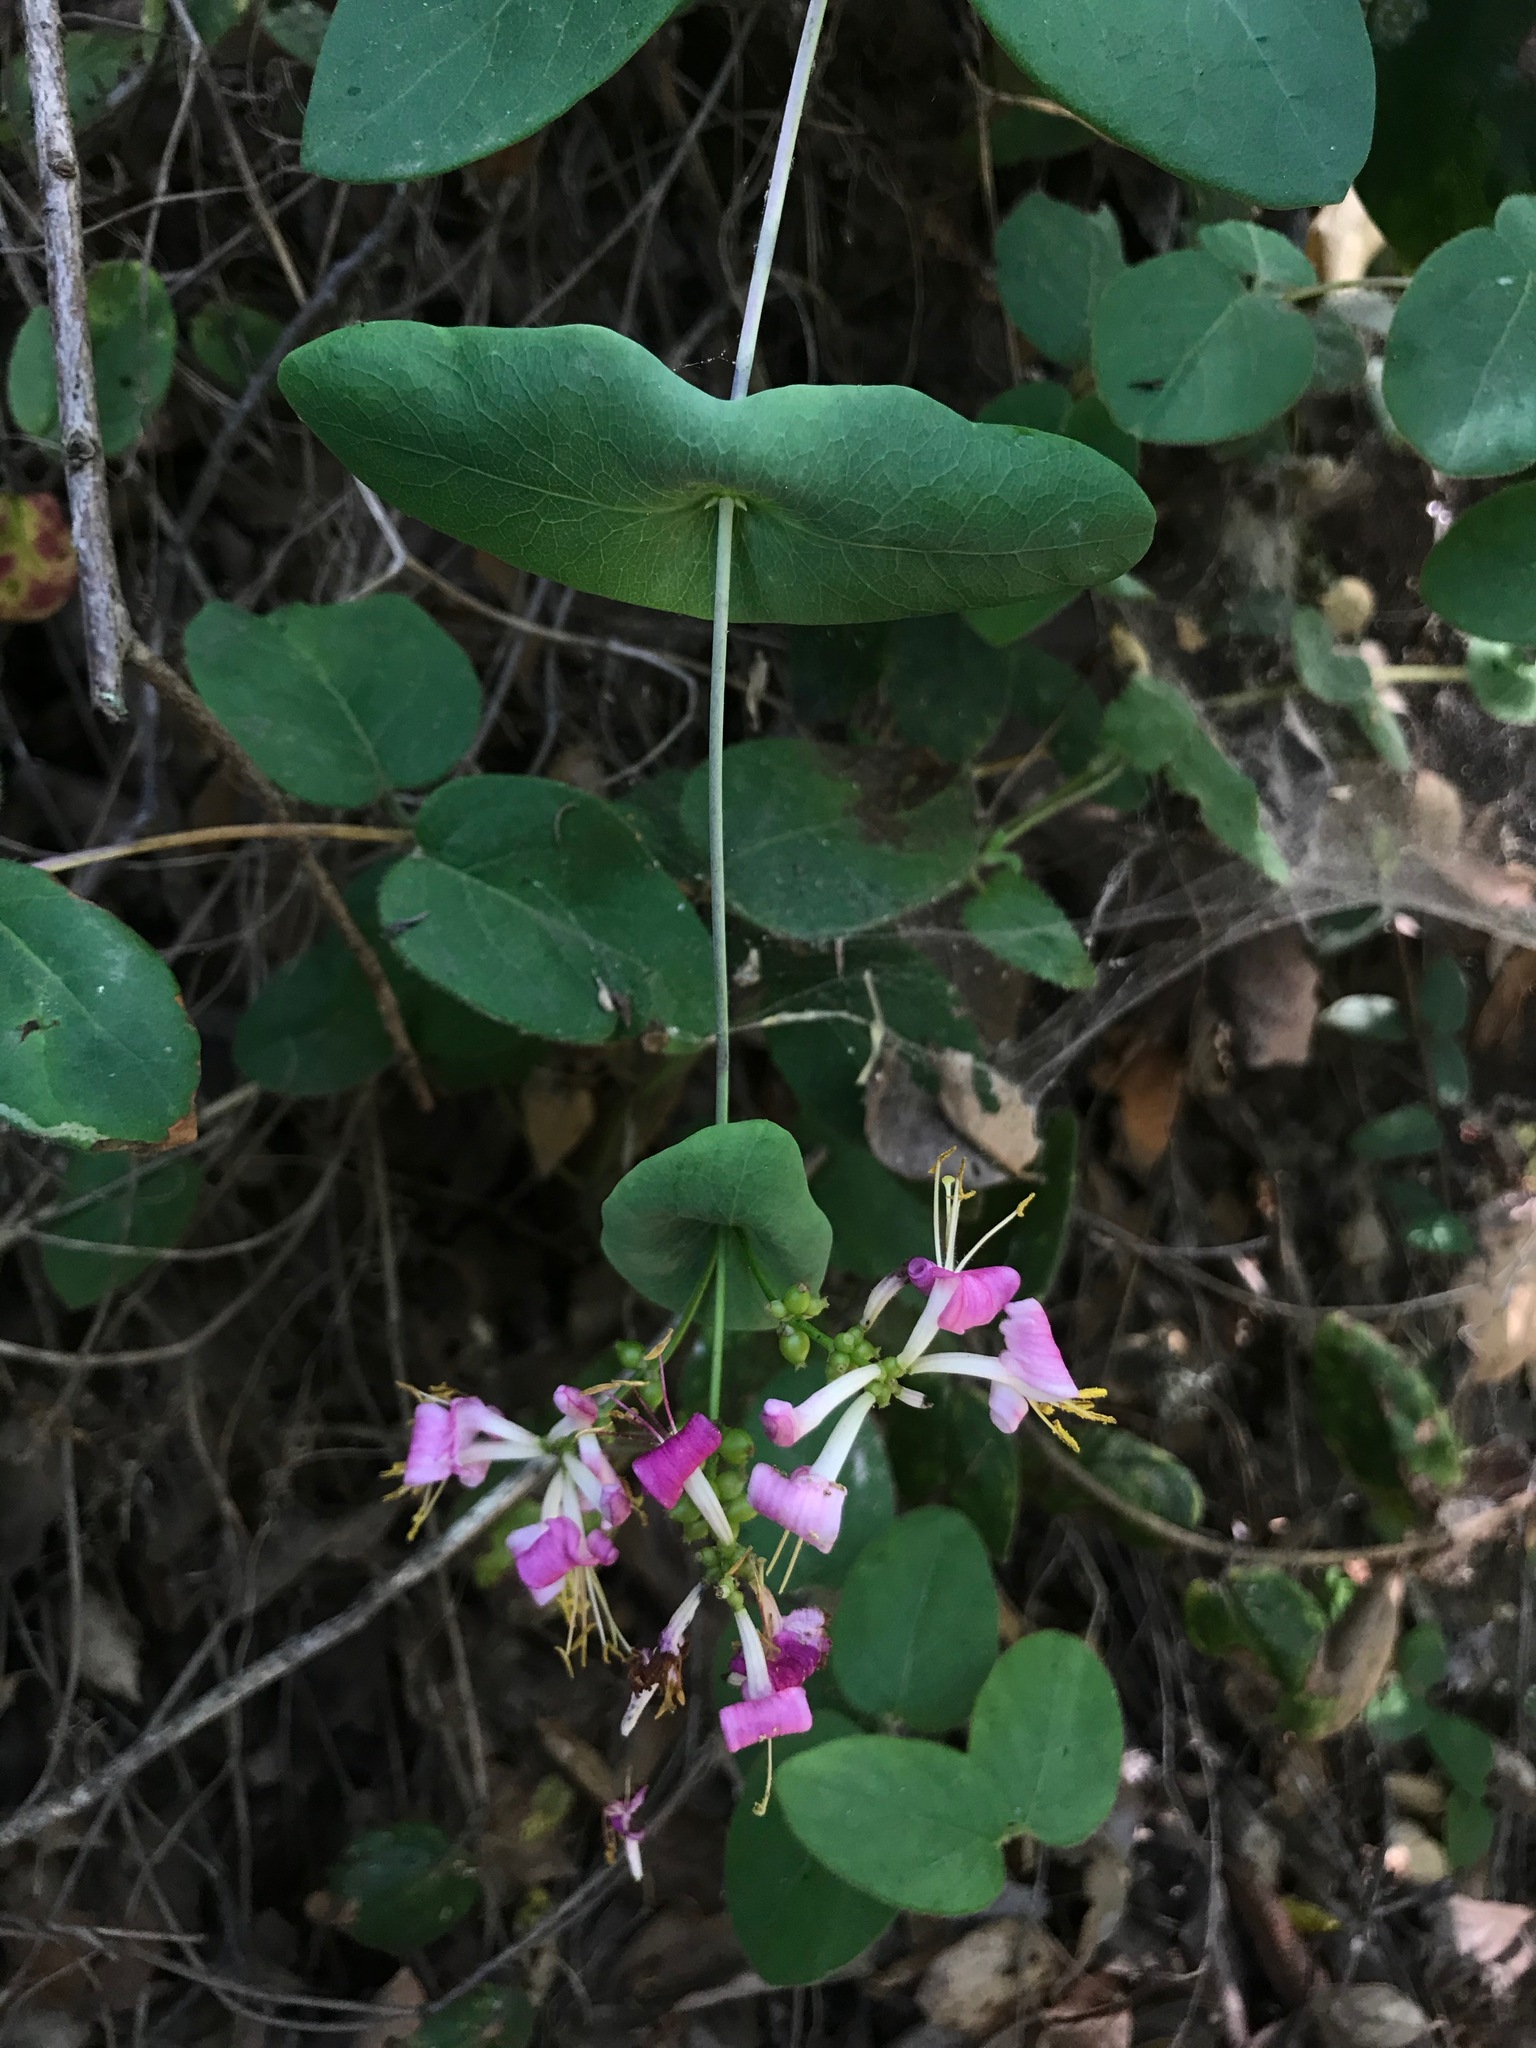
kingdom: Plantae
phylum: Tracheophyta
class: Magnoliopsida
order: Dipsacales
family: Caprifoliaceae
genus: Lonicera
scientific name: Lonicera hispidula
